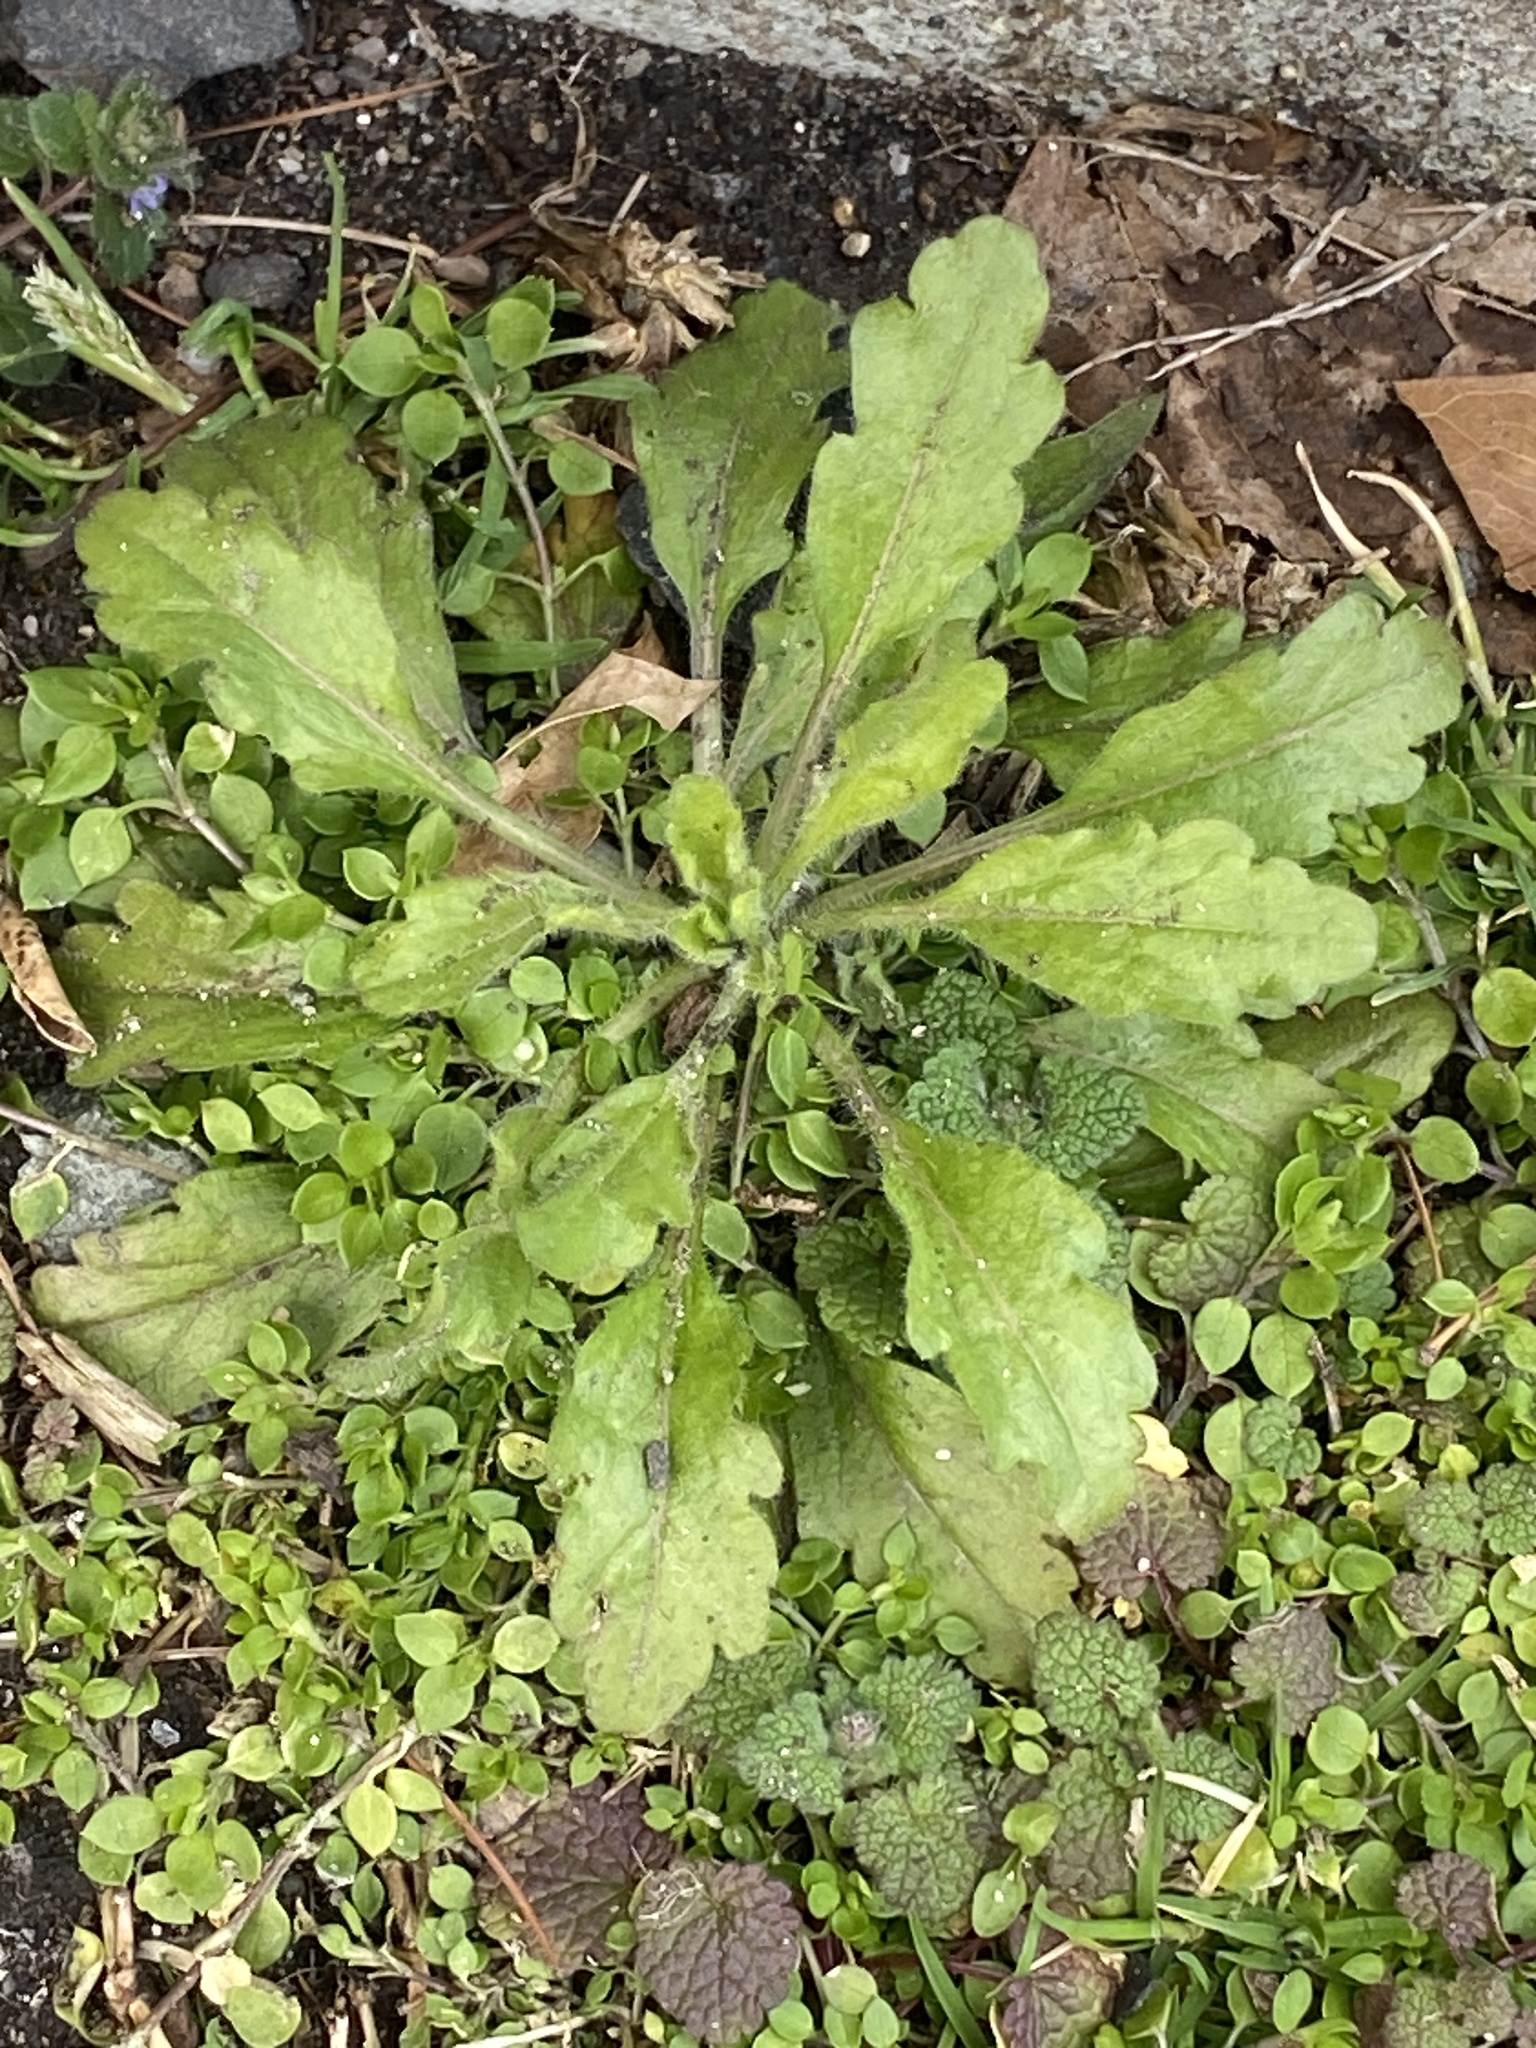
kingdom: Plantae
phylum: Tracheophyta
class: Magnoliopsida
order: Asterales
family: Asteraceae
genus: Erigeron
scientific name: Erigeron canadensis
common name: Canadian fleabane
